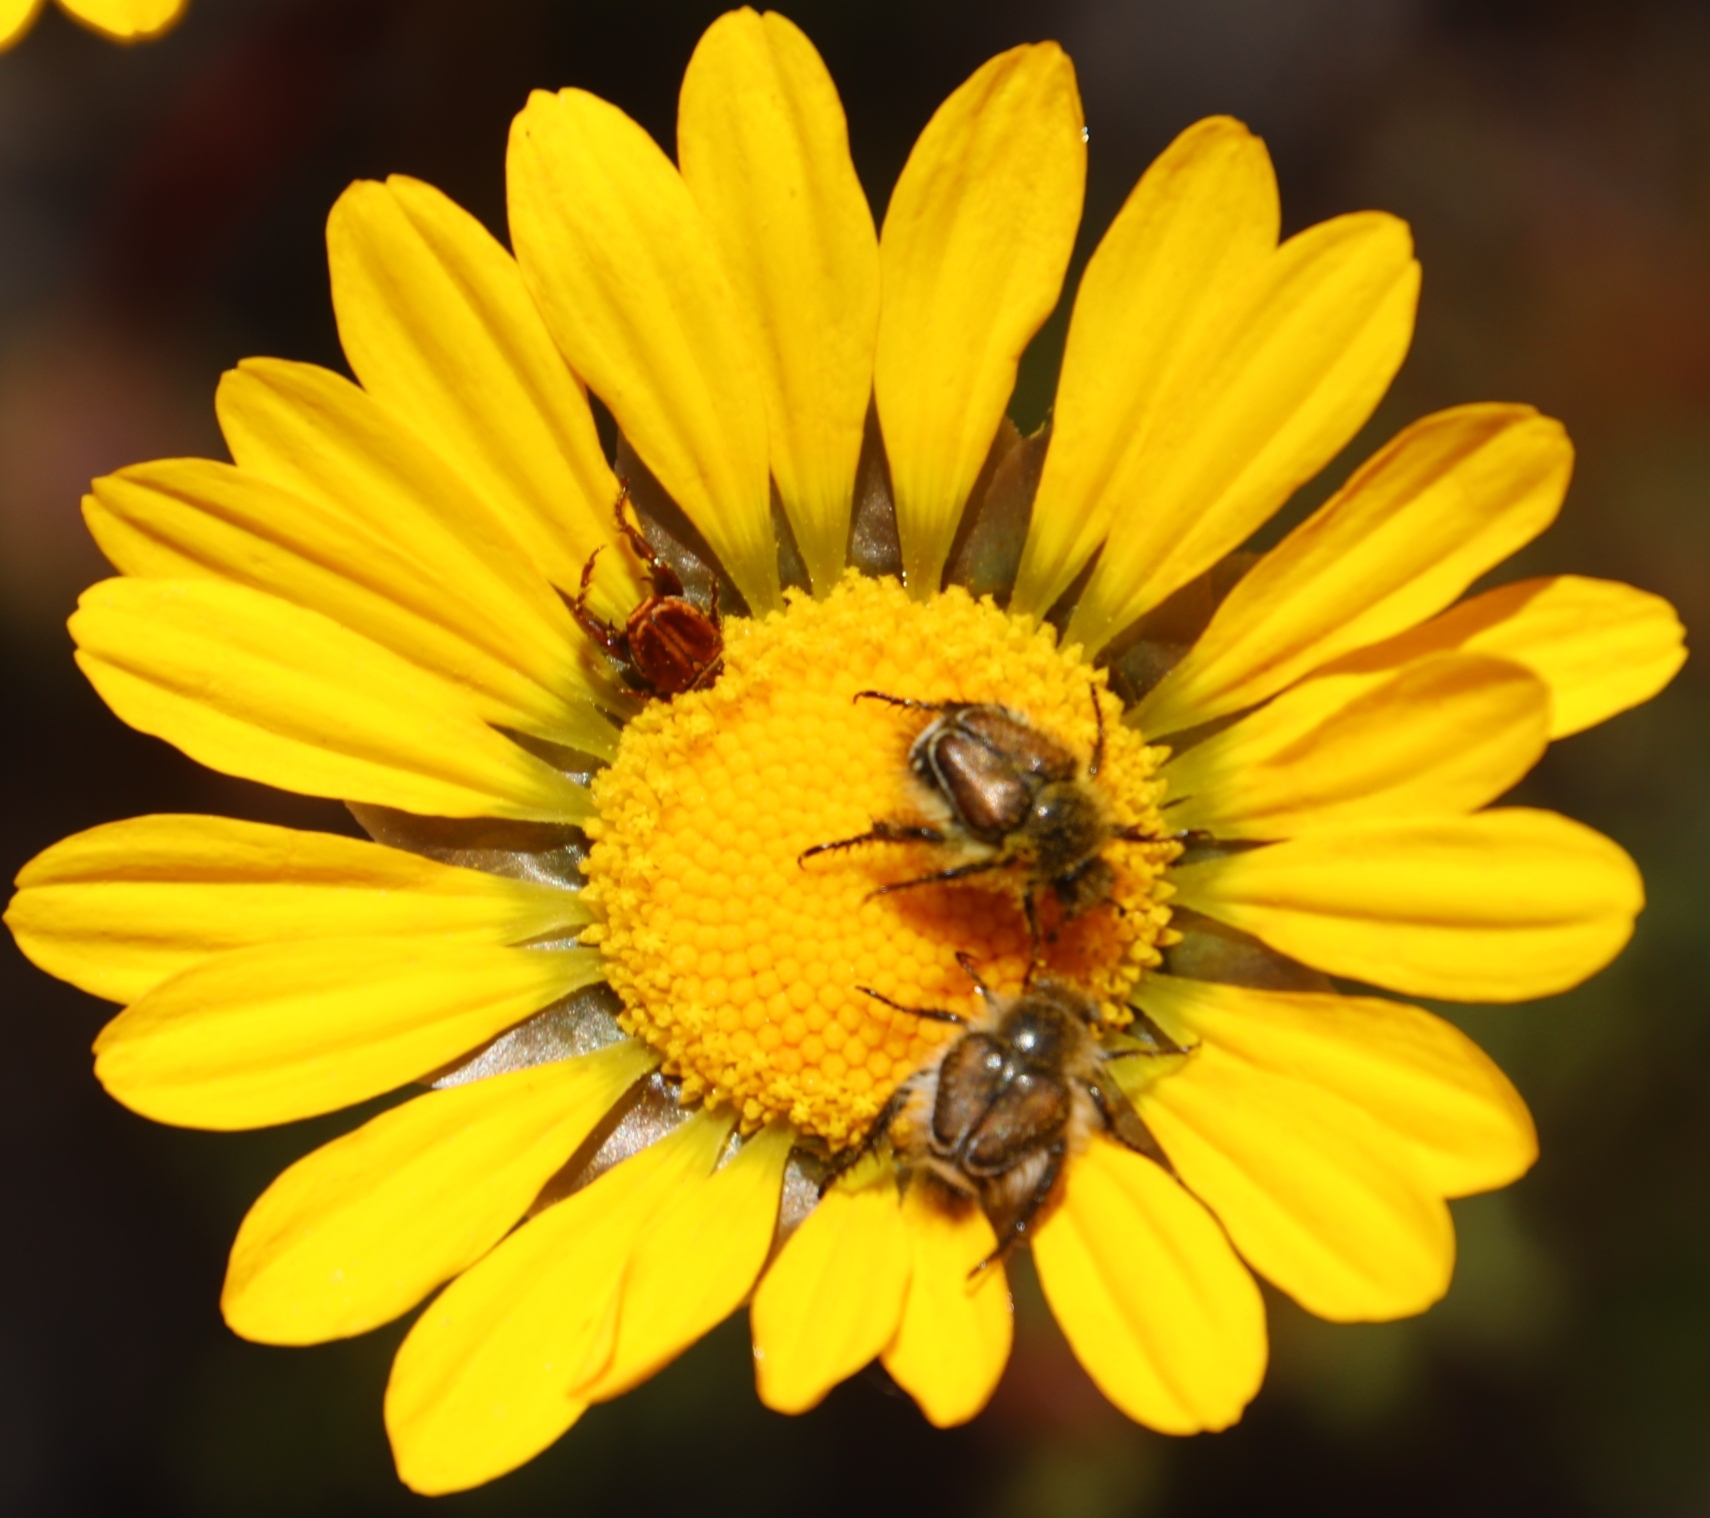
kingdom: Plantae
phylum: Tracheophyta
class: Magnoliopsida
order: Asterales
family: Asteraceae
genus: Ursinia
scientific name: Ursinia paleacea
